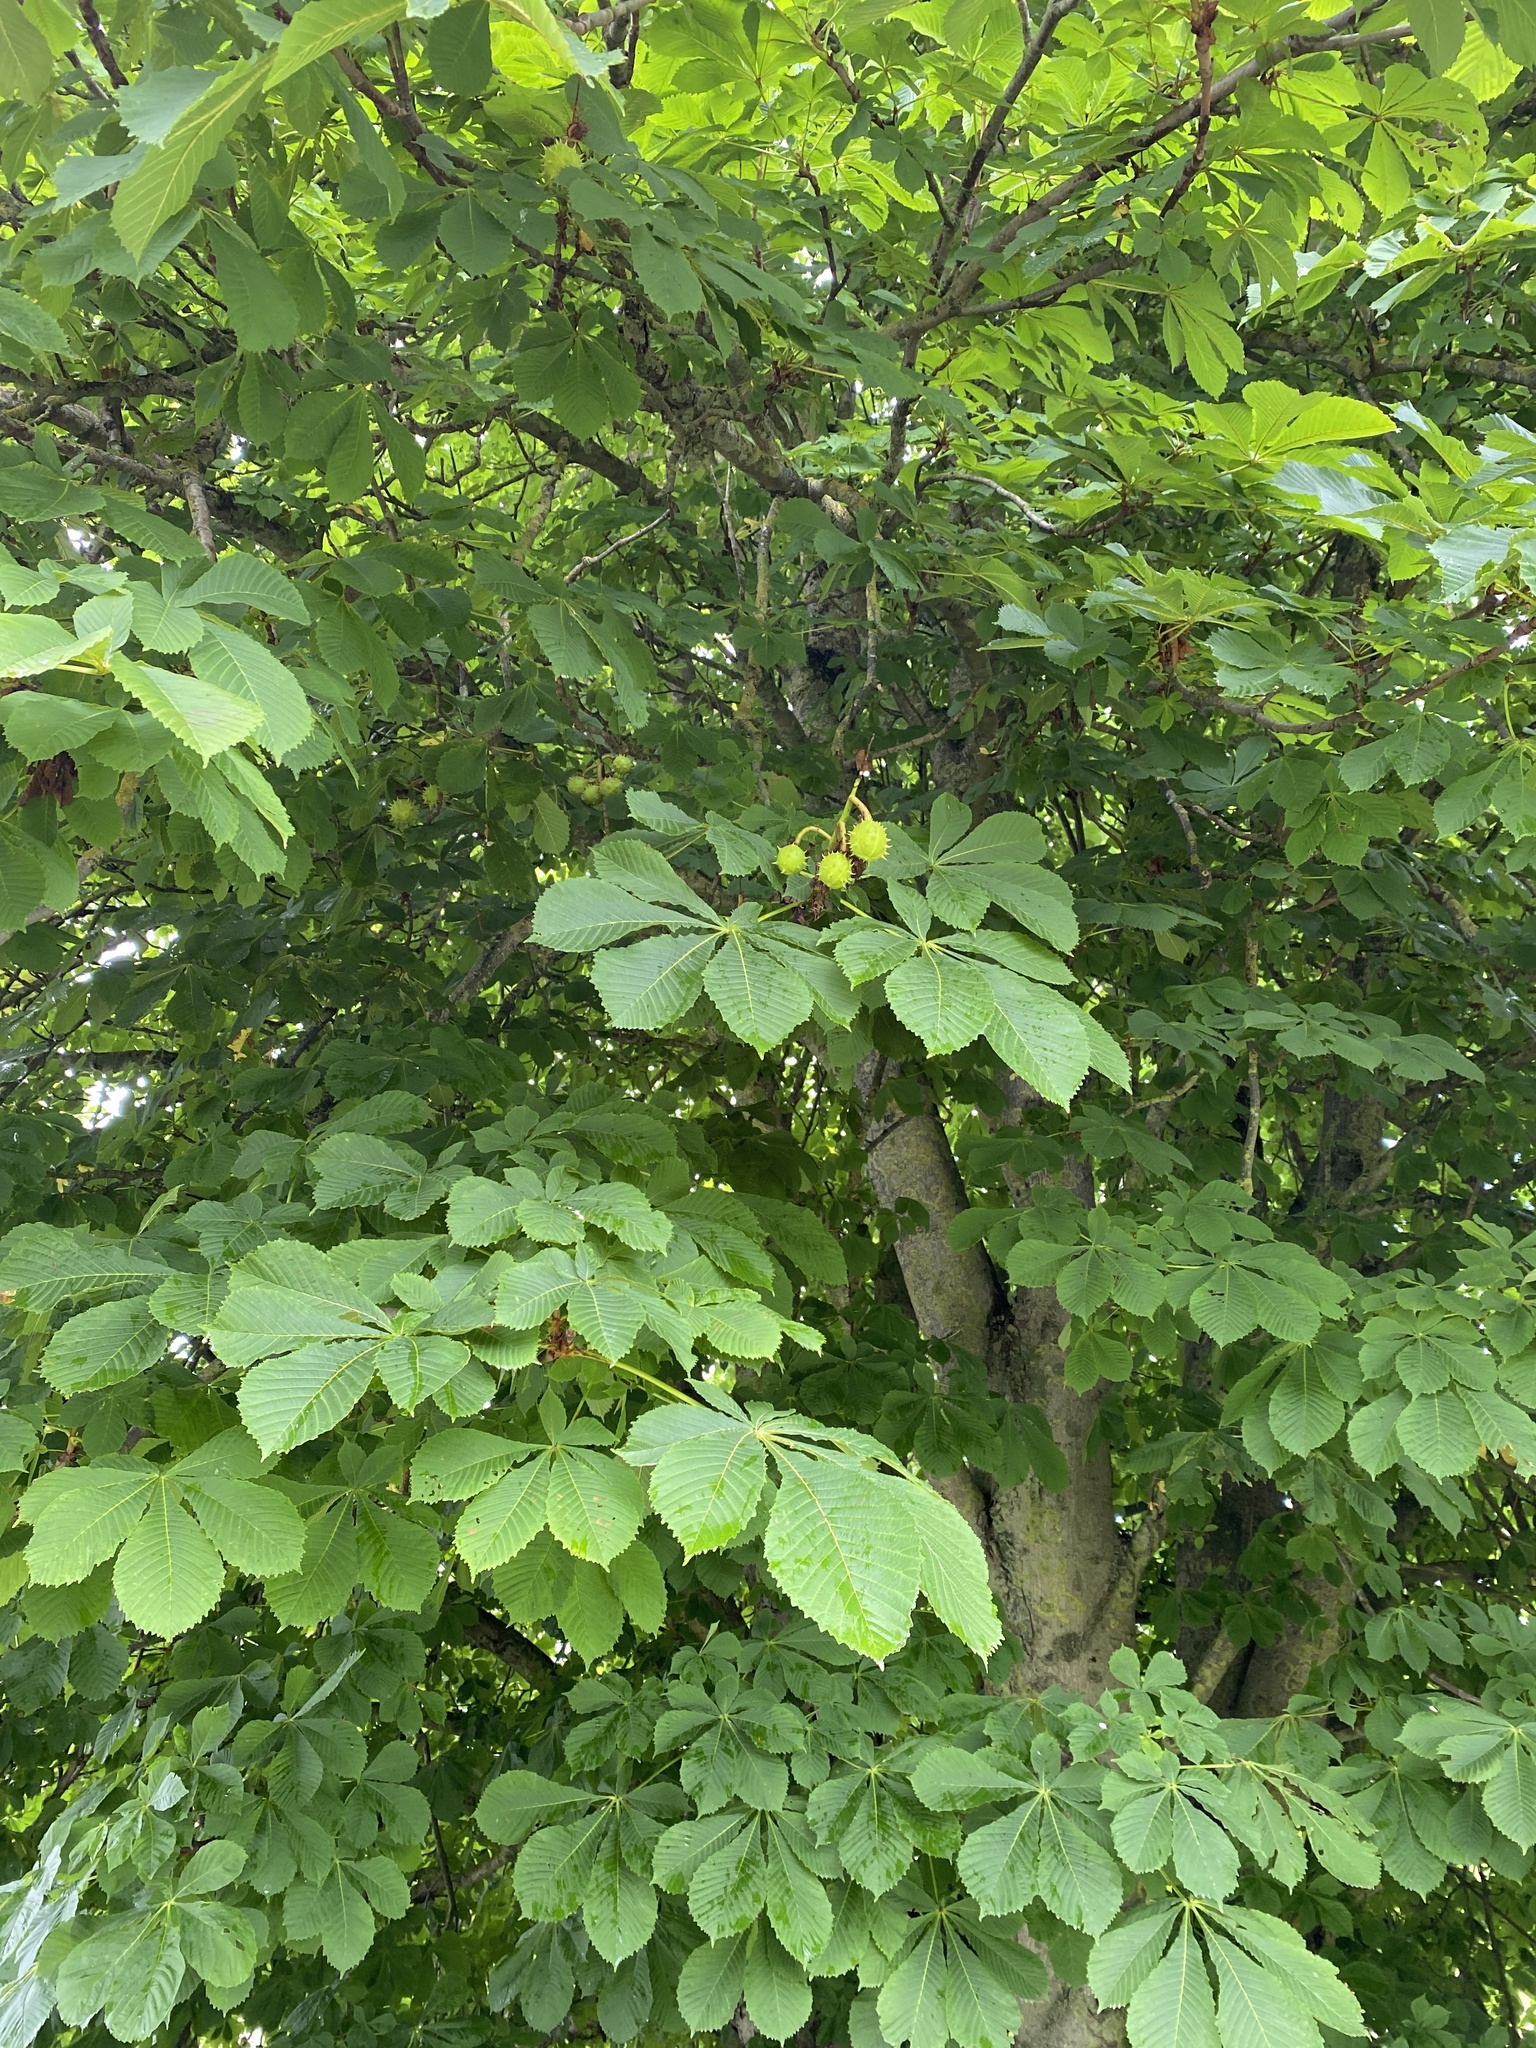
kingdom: Plantae
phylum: Tracheophyta
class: Magnoliopsida
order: Sapindales
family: Sapindaceae
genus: Aesculus
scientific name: Aesculus hippocastanum
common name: Horse-chestnut
